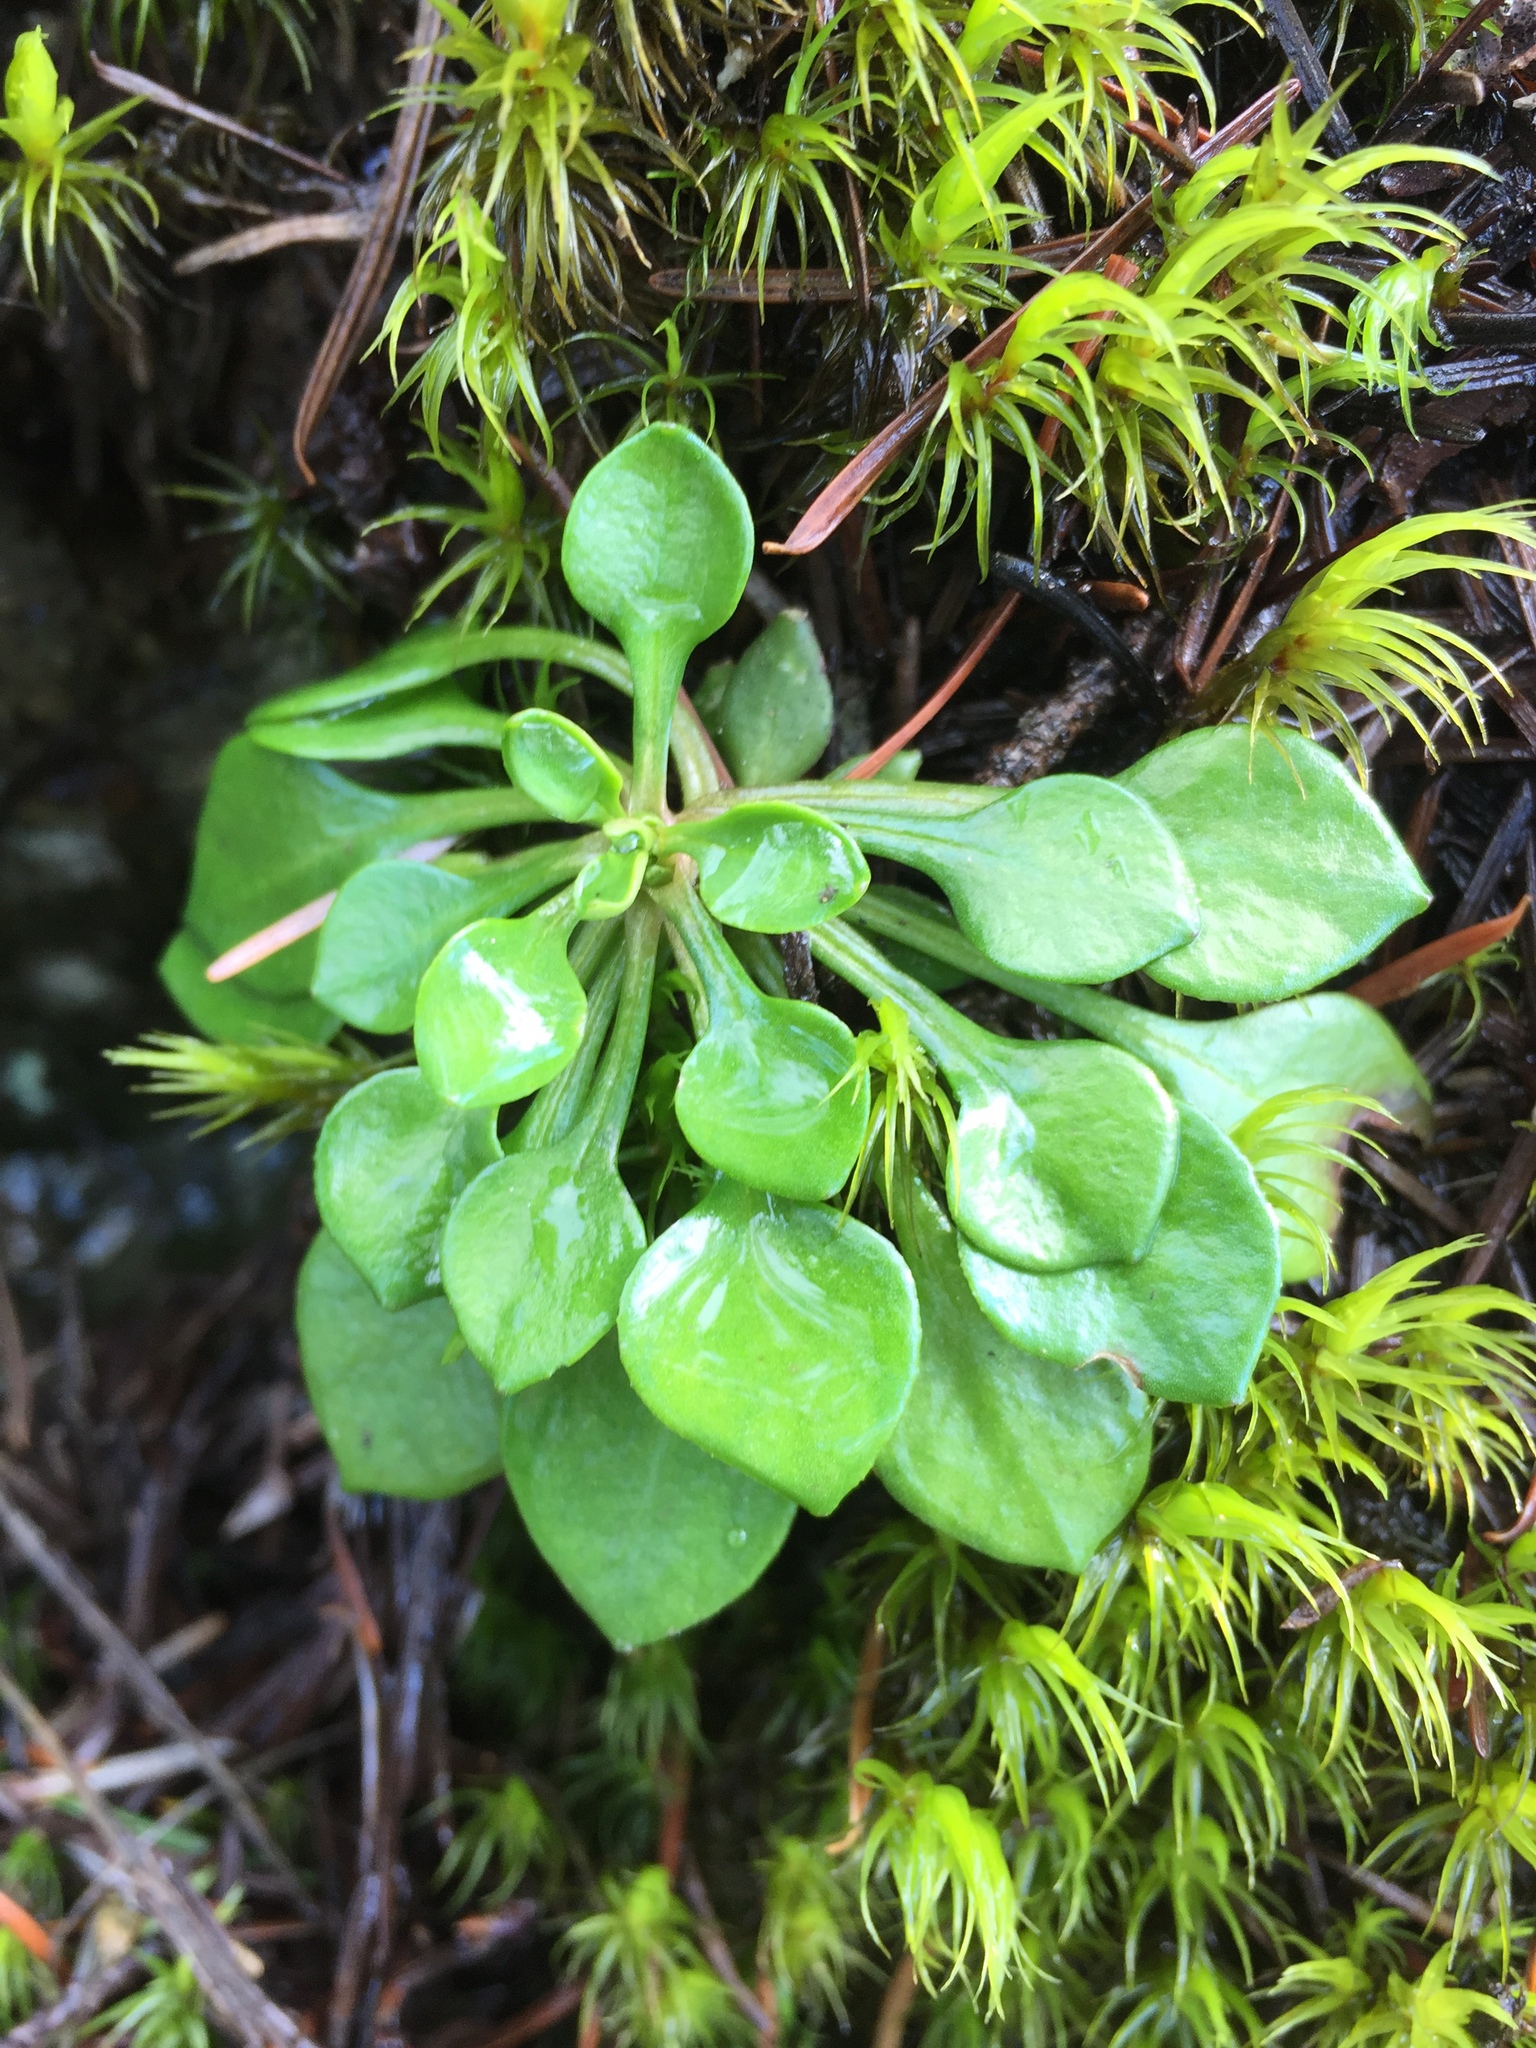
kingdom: Plantae
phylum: Tracheophyta
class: Magnoliopsida
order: Caryophyllales
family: Montiaceae
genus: Claytonia
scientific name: Claytonia sibirica
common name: Pink purslane
